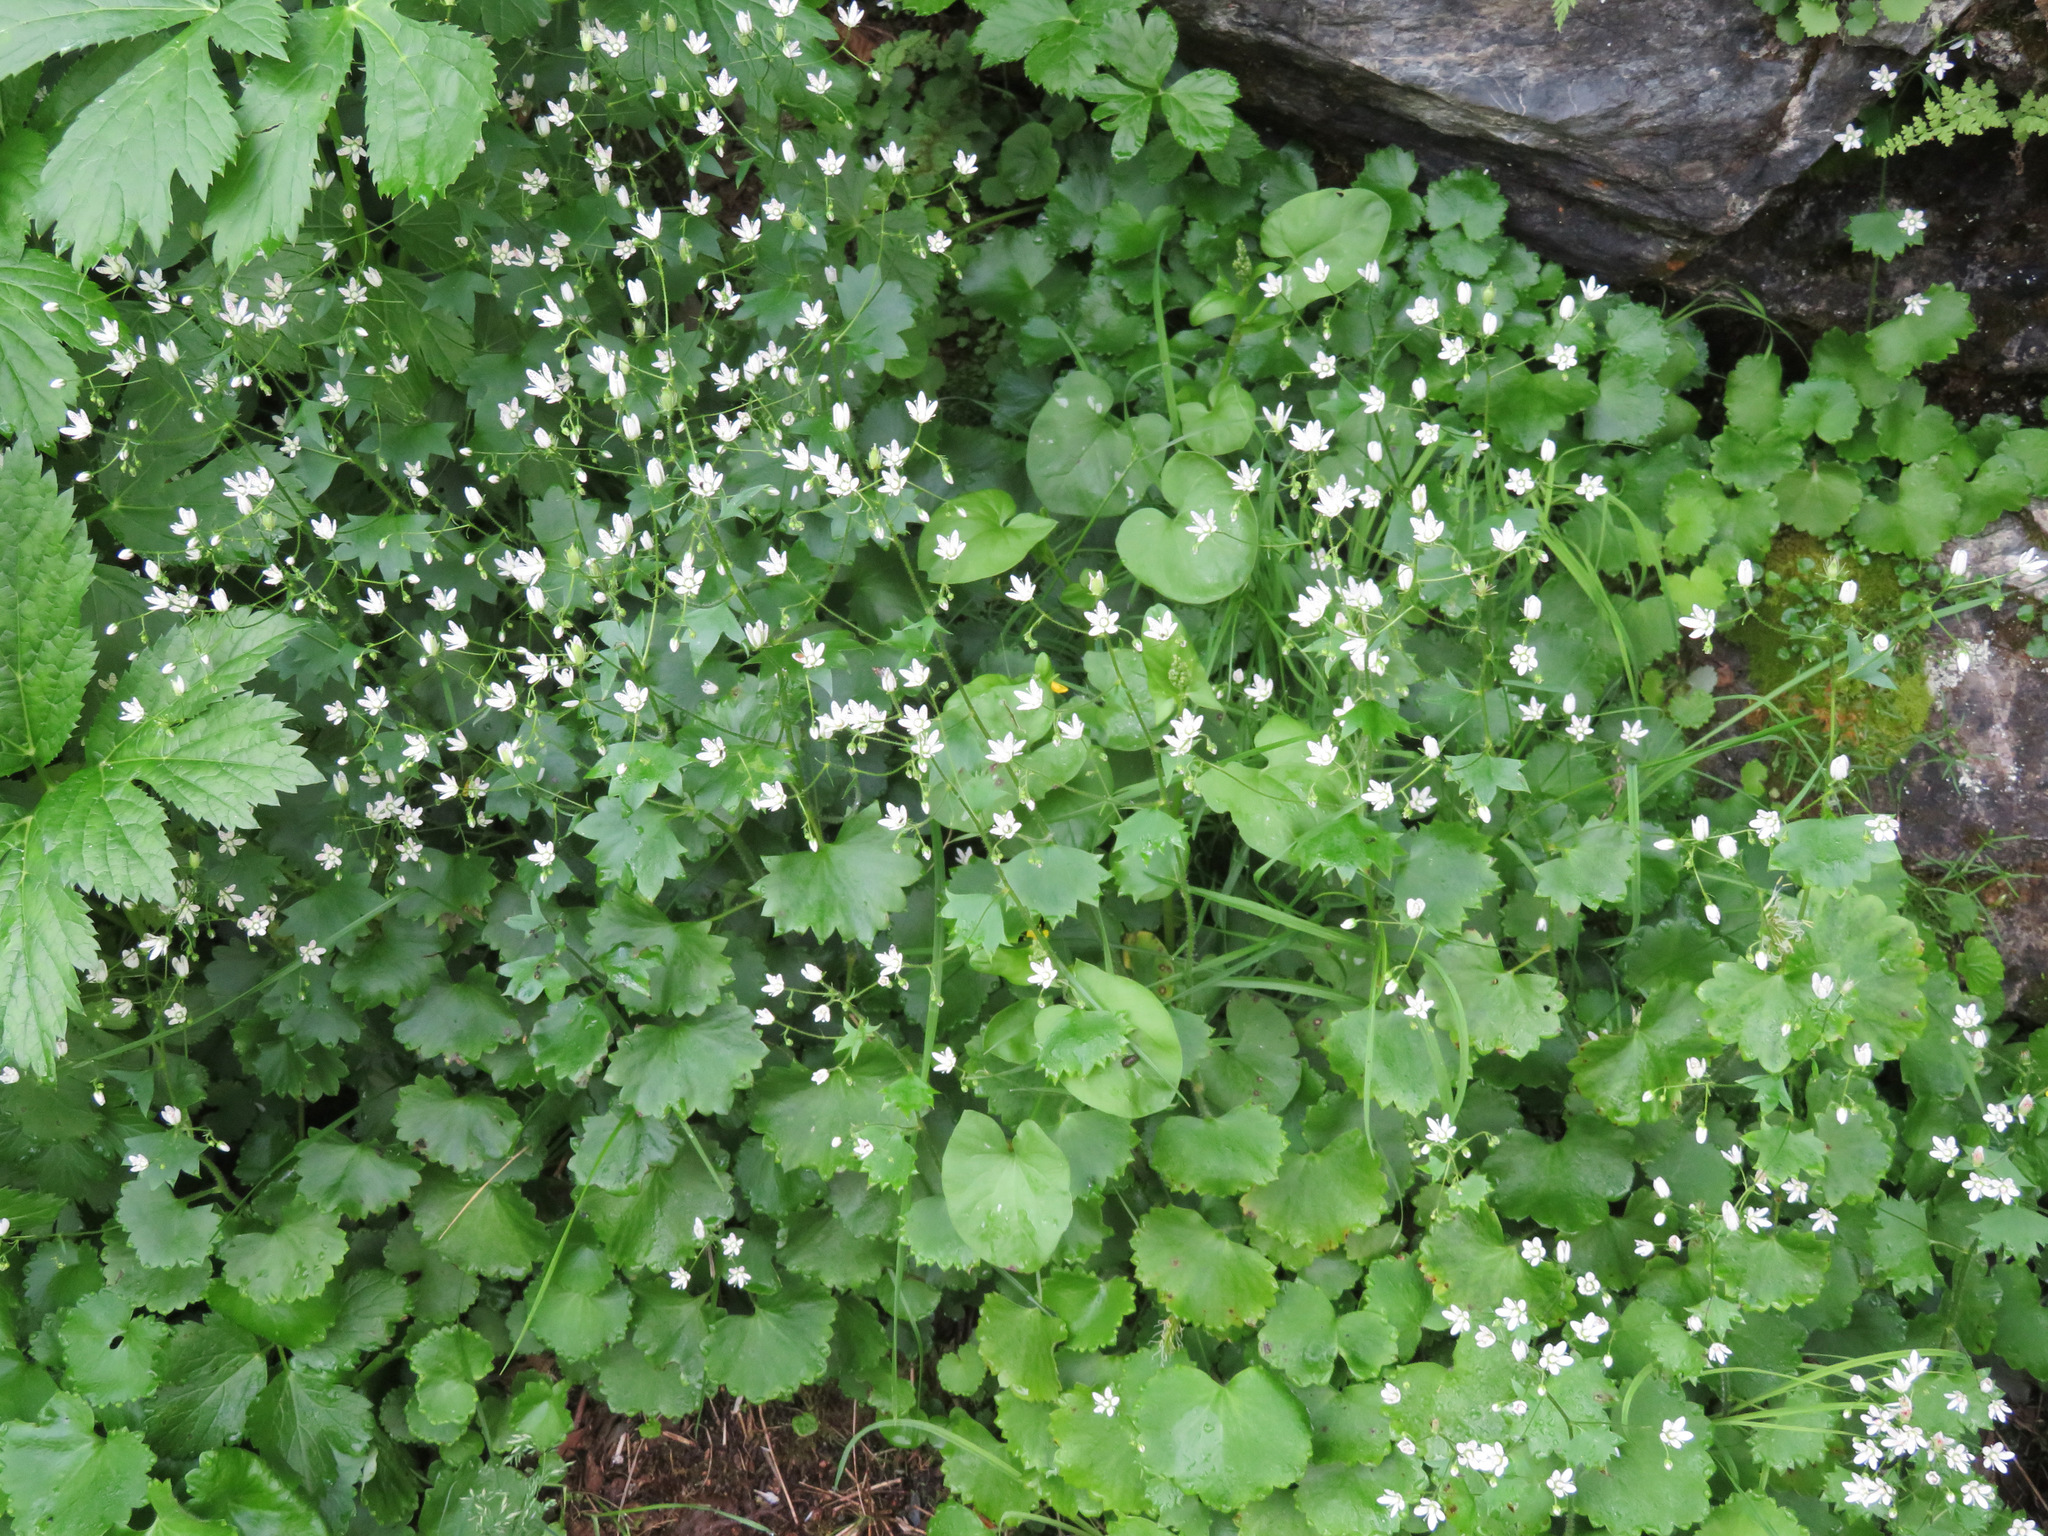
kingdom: Plantae
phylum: Tracheophyta
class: Magnoliopsida
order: Saxifragales
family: Saxifragaceae
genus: Saxifraga
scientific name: Saxifraga rotundifolia
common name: Round-leaved saxifrage
